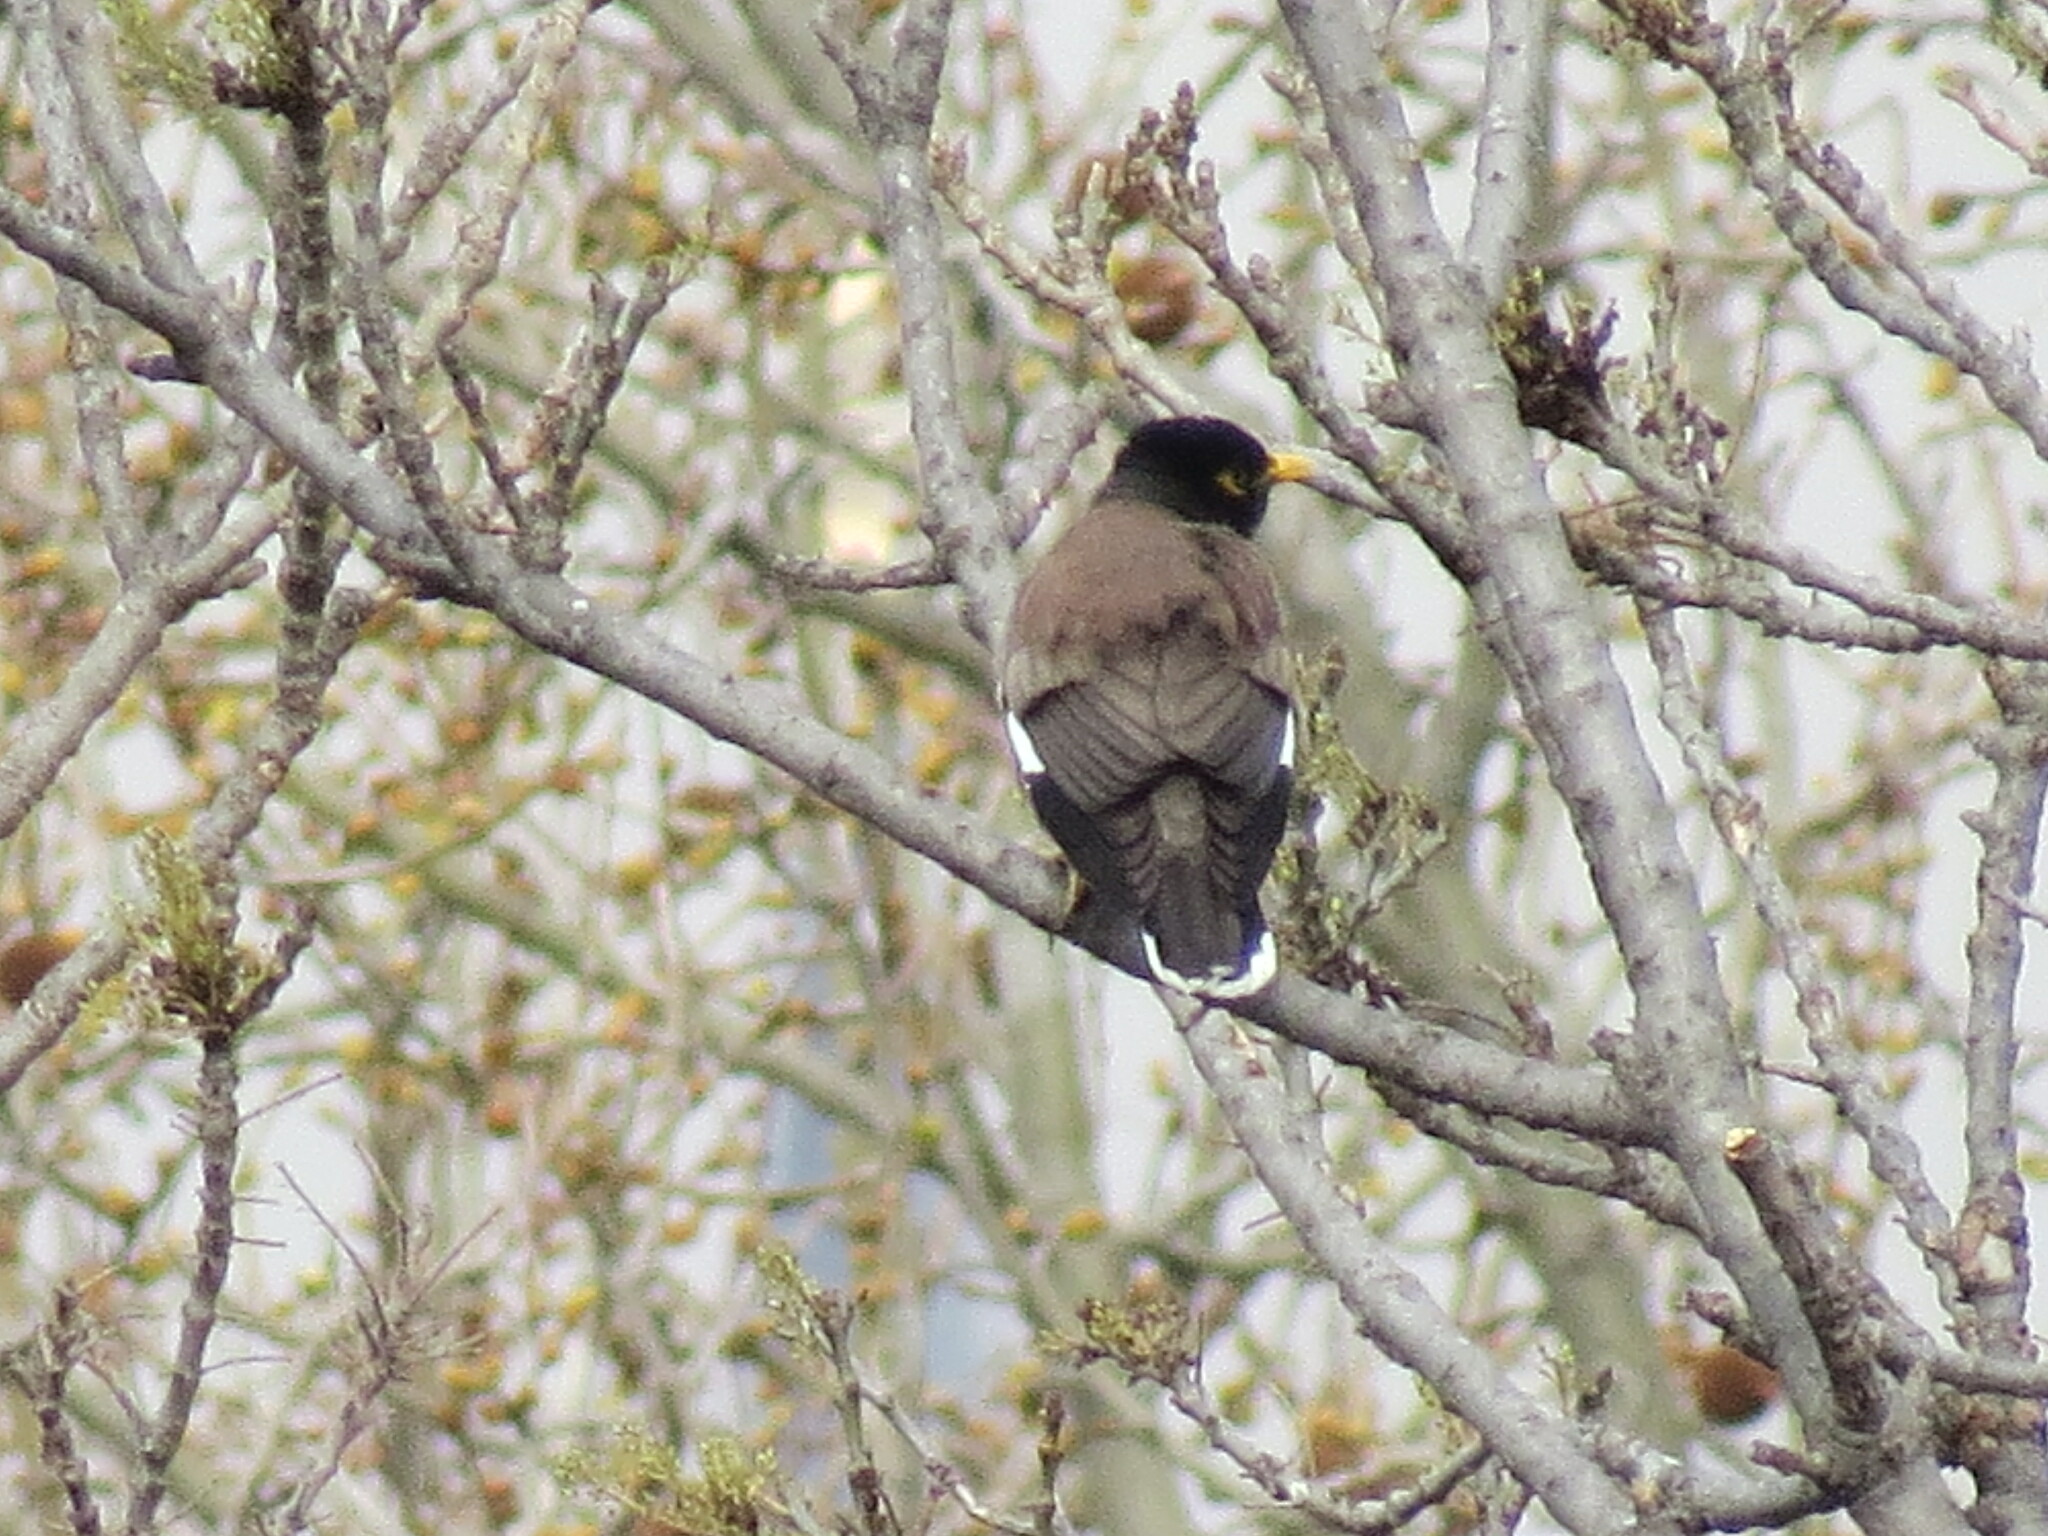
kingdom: Animalia
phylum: Chordata
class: Aves
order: Passeriformes
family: Sturnidae
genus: Acridotheres
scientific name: Acridotheres tristis
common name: Common myna
